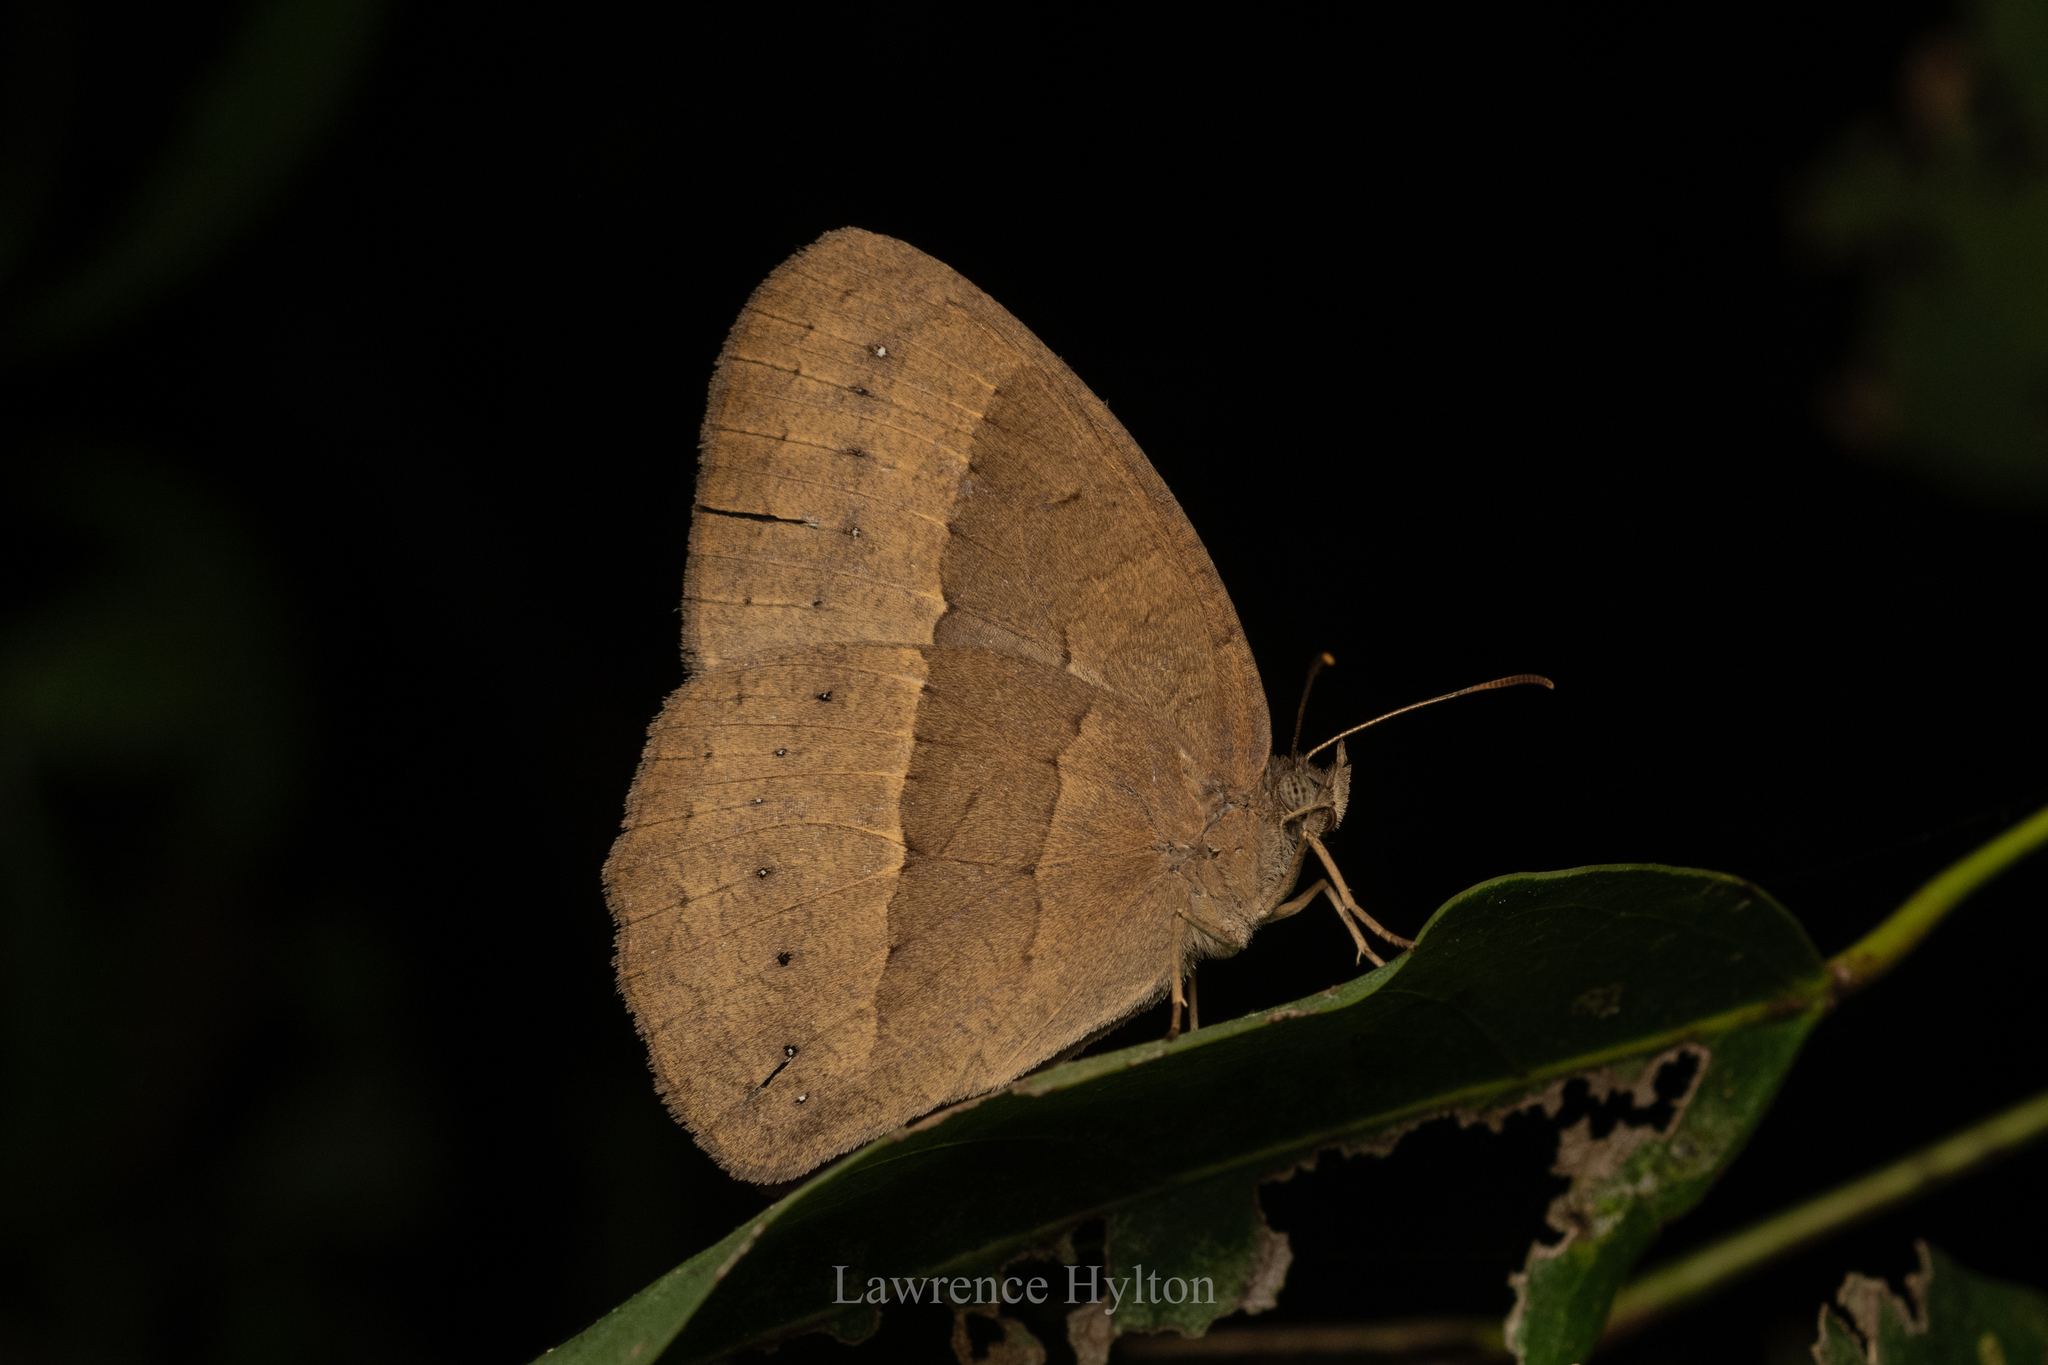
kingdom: Animalia
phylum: Arthropoda
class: Insecta
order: Lepidoptera
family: Nymphalidae
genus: Mycalesis
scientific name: Mycalesis mineus
